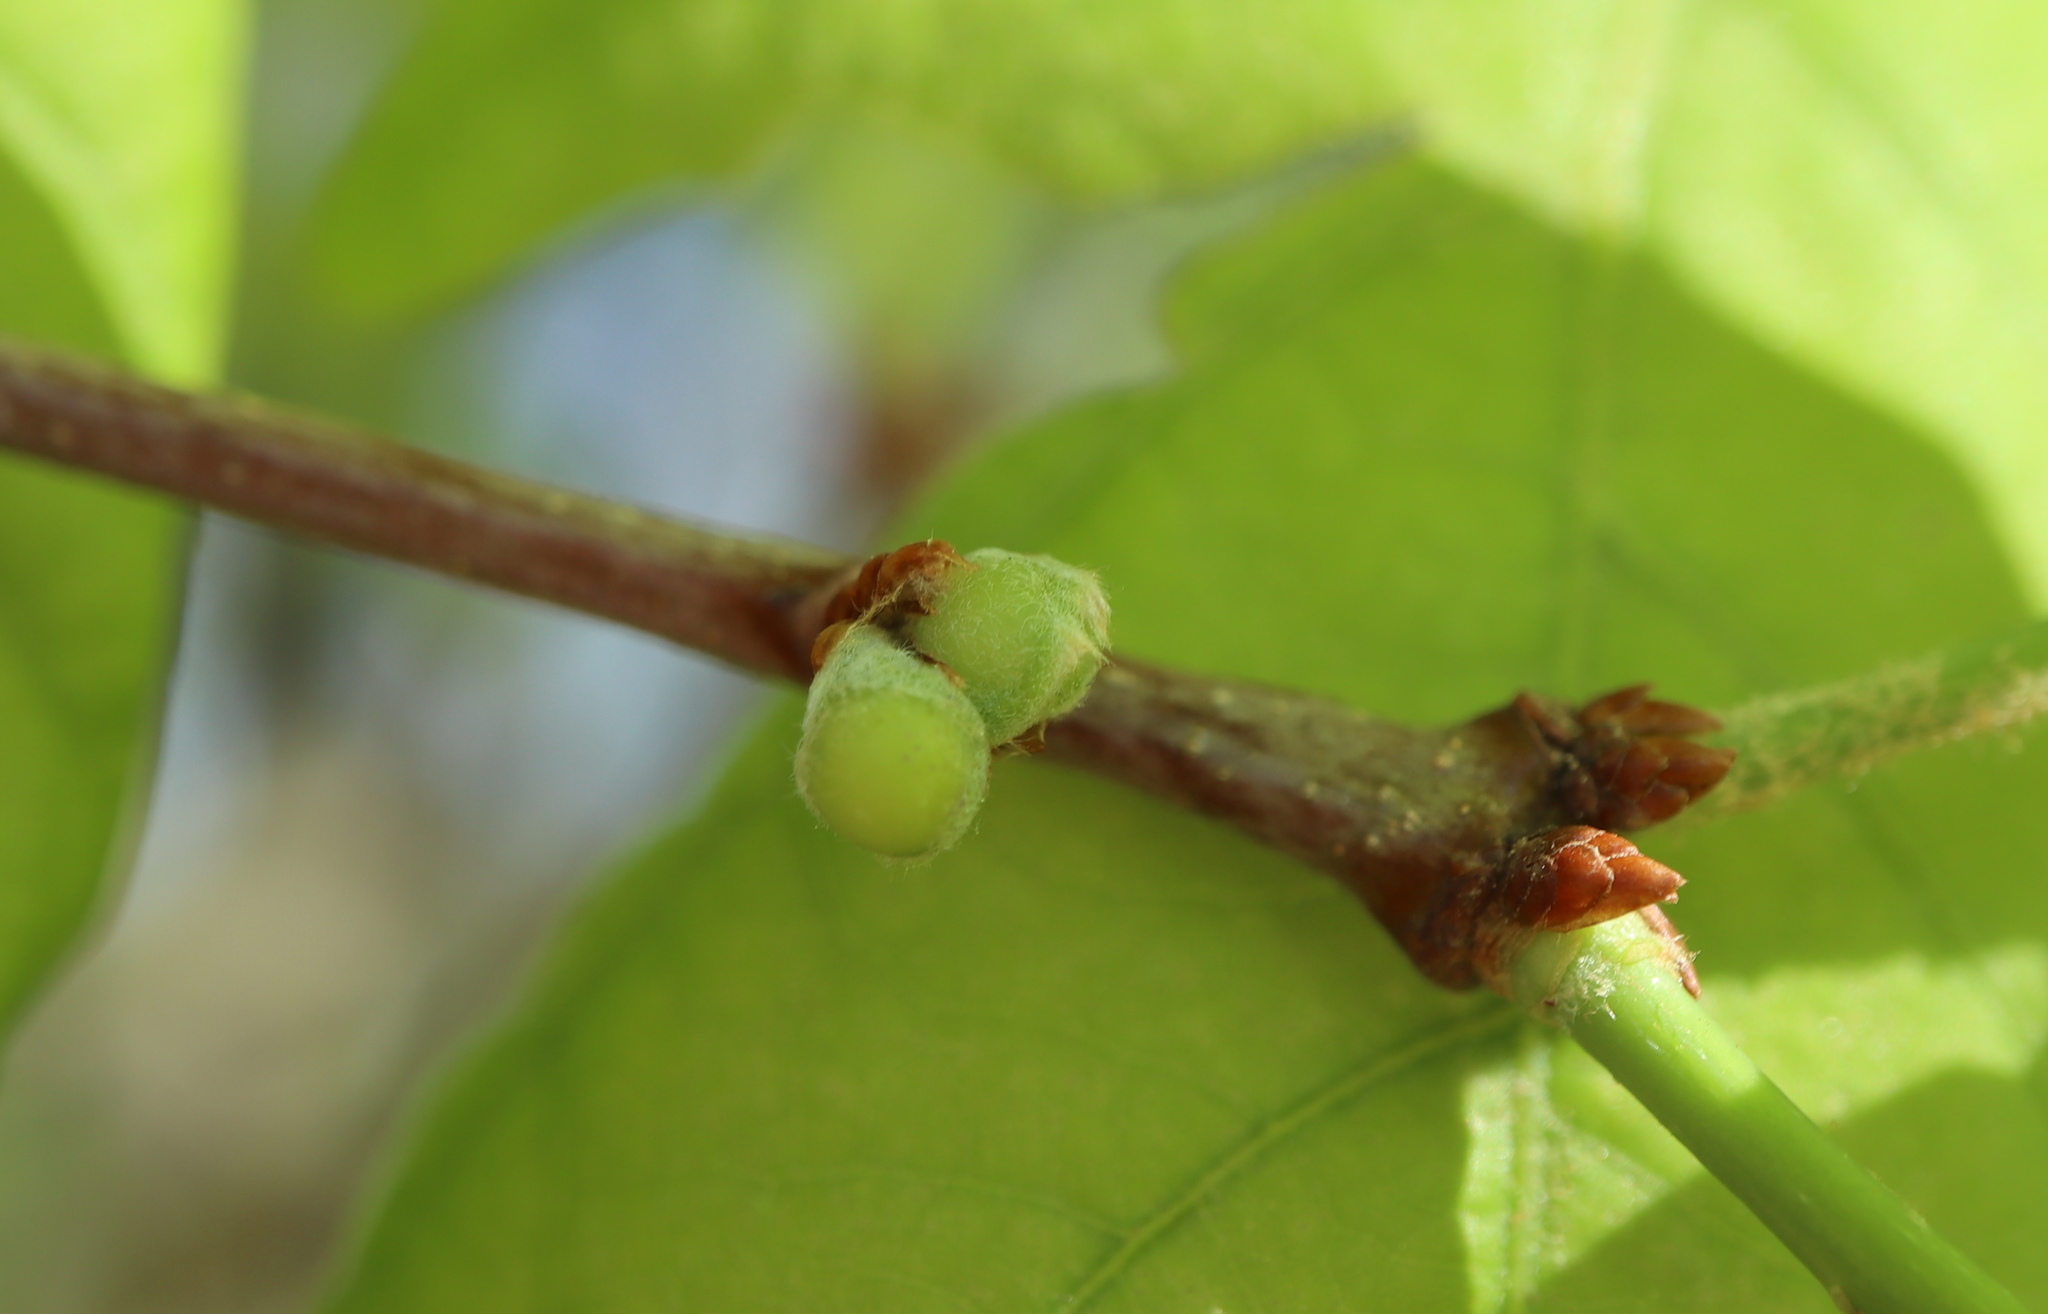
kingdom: Animalia
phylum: Arthropoda
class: Insecta
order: Hymenoptera
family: Cynipidae
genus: Andricus
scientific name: Andricus
